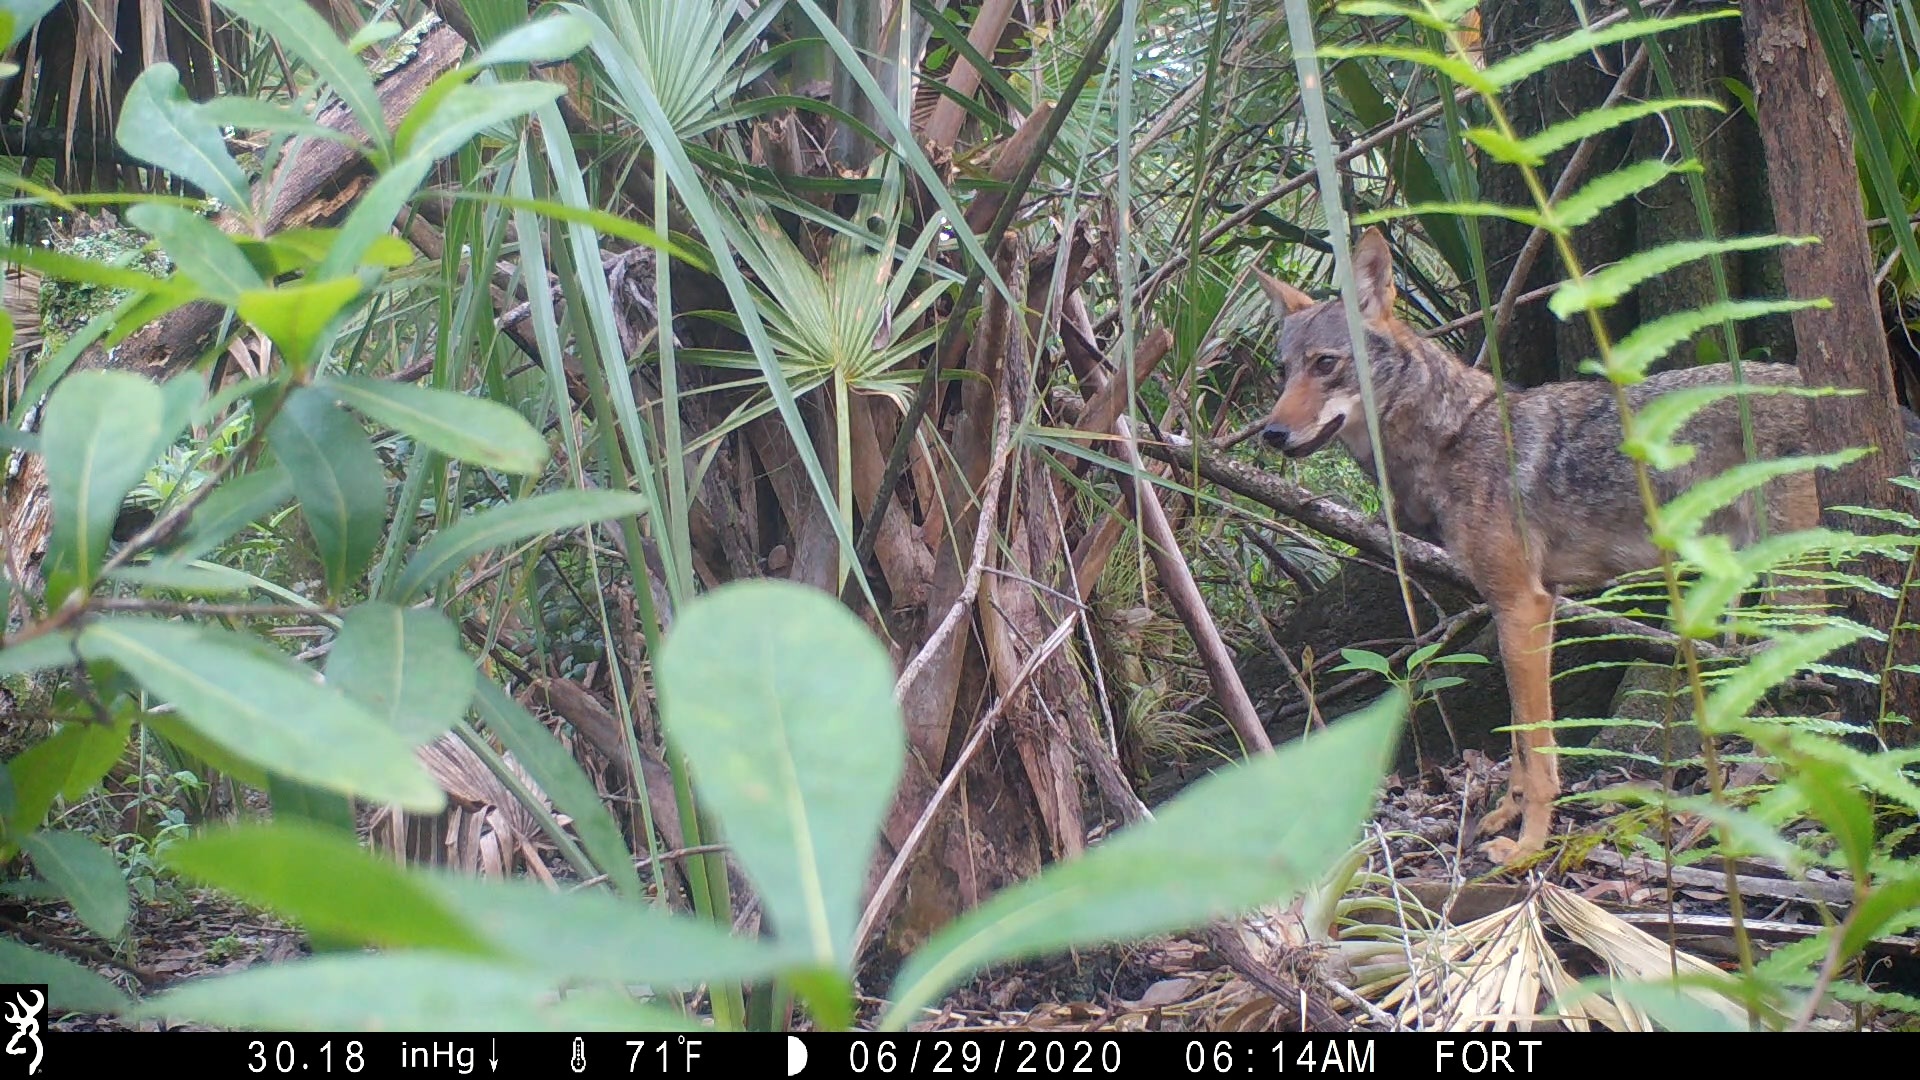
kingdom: Animalia
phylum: Chordata
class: Mammalia
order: Carnivora
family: Canidae
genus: Canis
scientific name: Canis latrans
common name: Coyote
